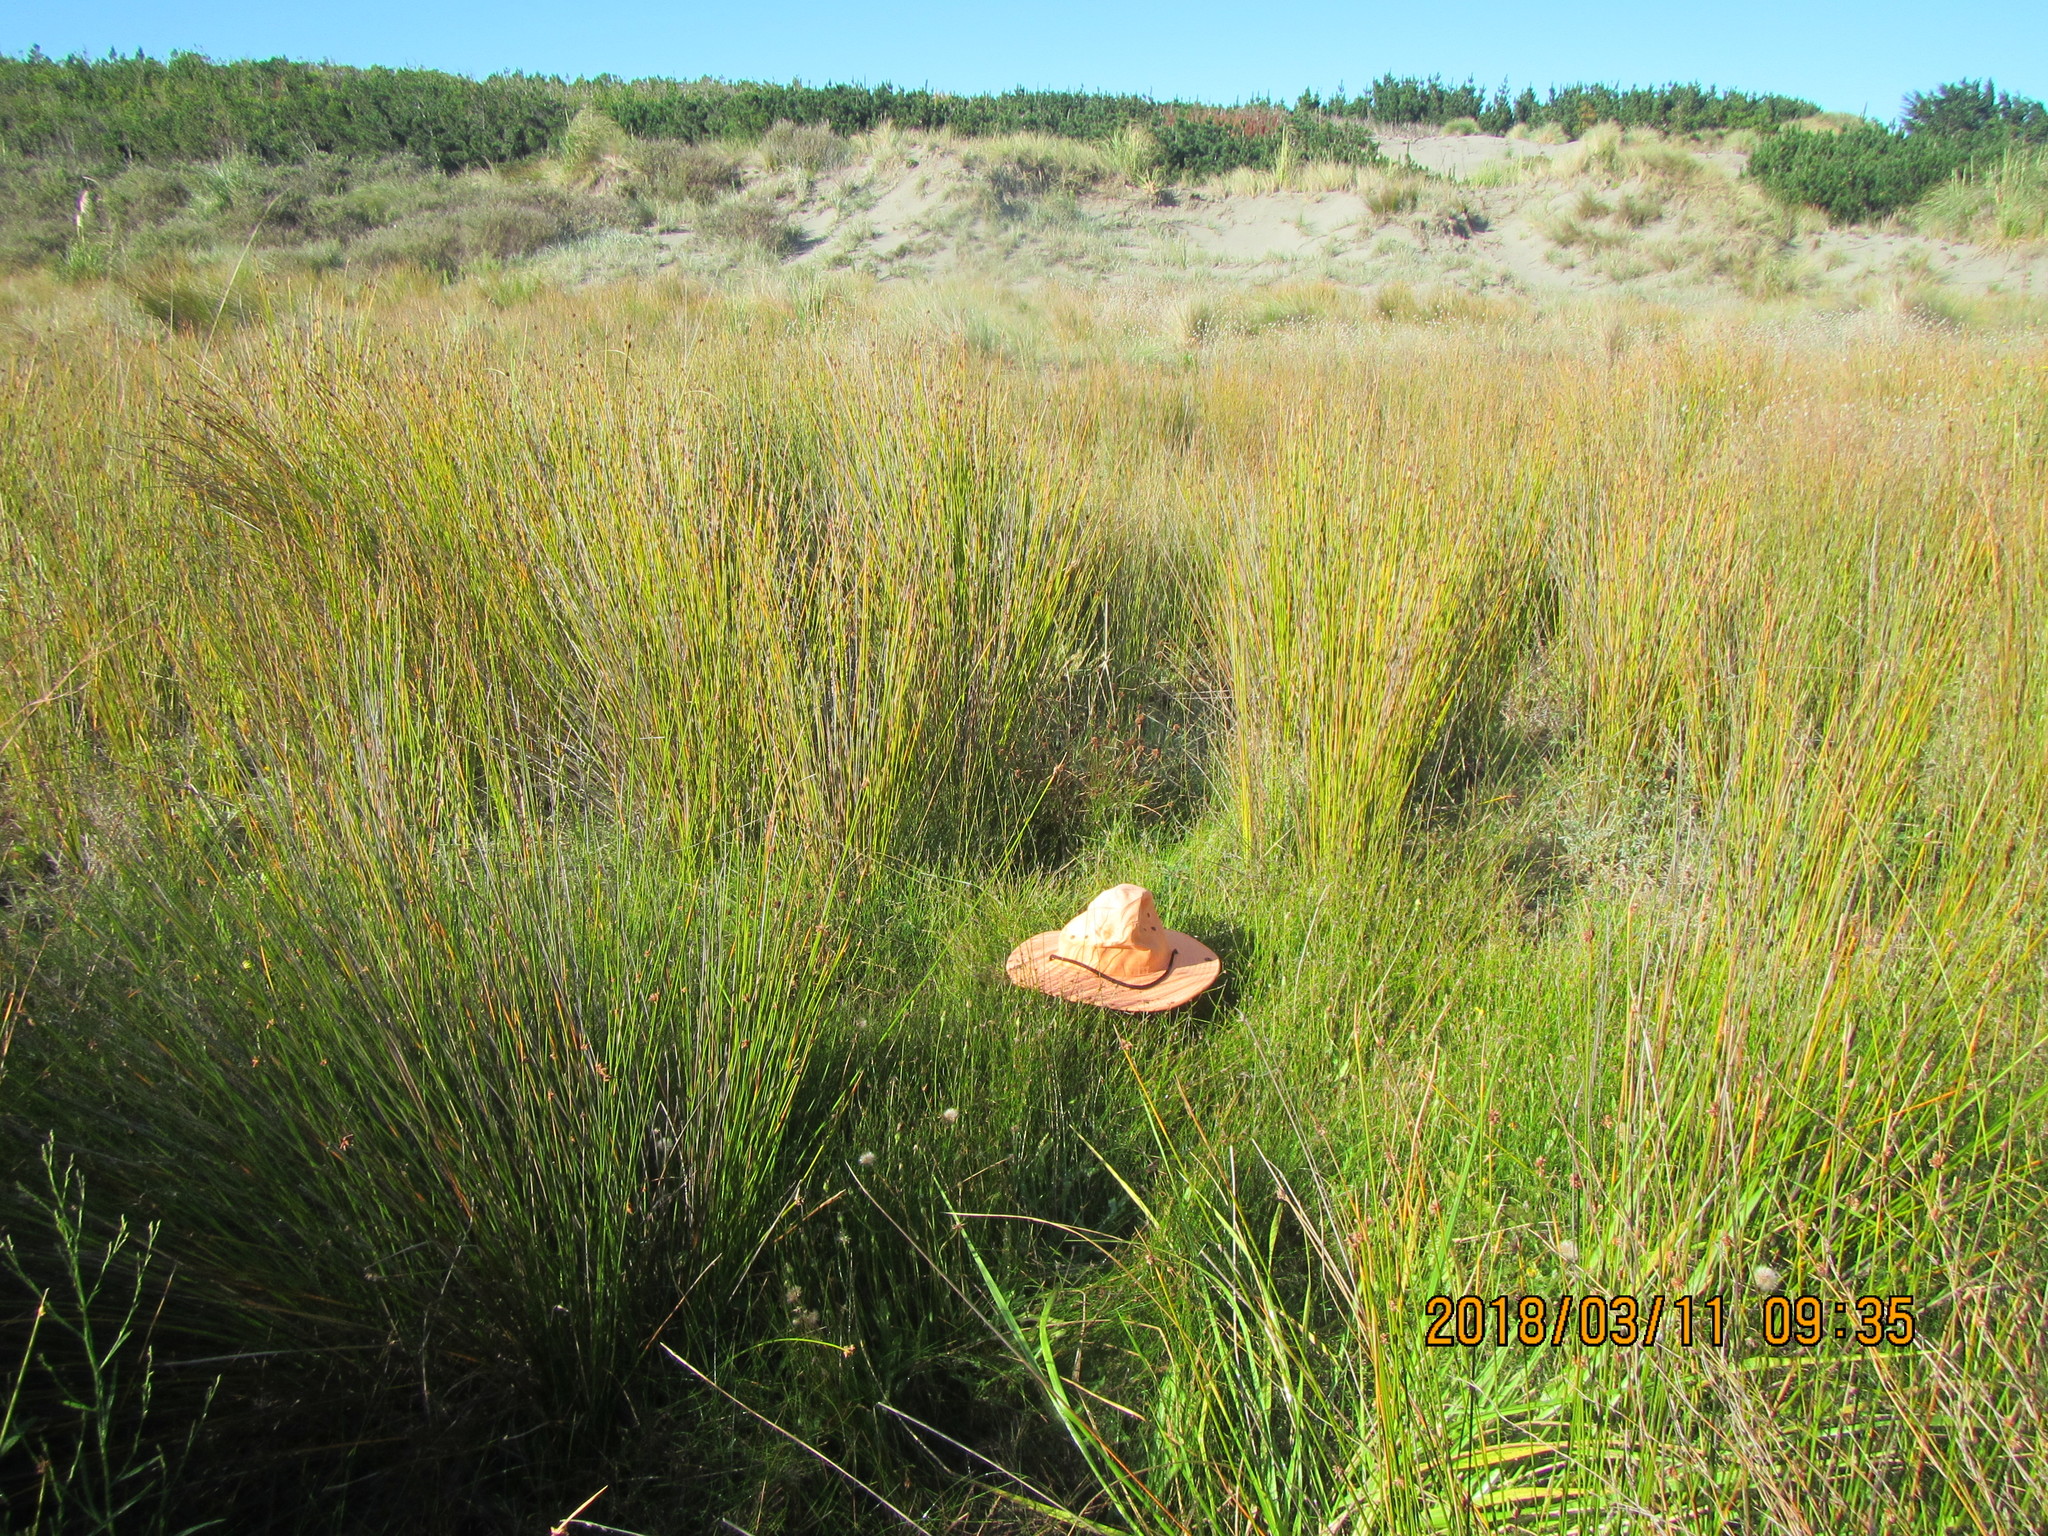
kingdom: Plantae
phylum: Tracheophyta
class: Liliopsida
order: Poales
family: Juncaceae
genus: Juncus
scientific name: Juncus caespiticius
